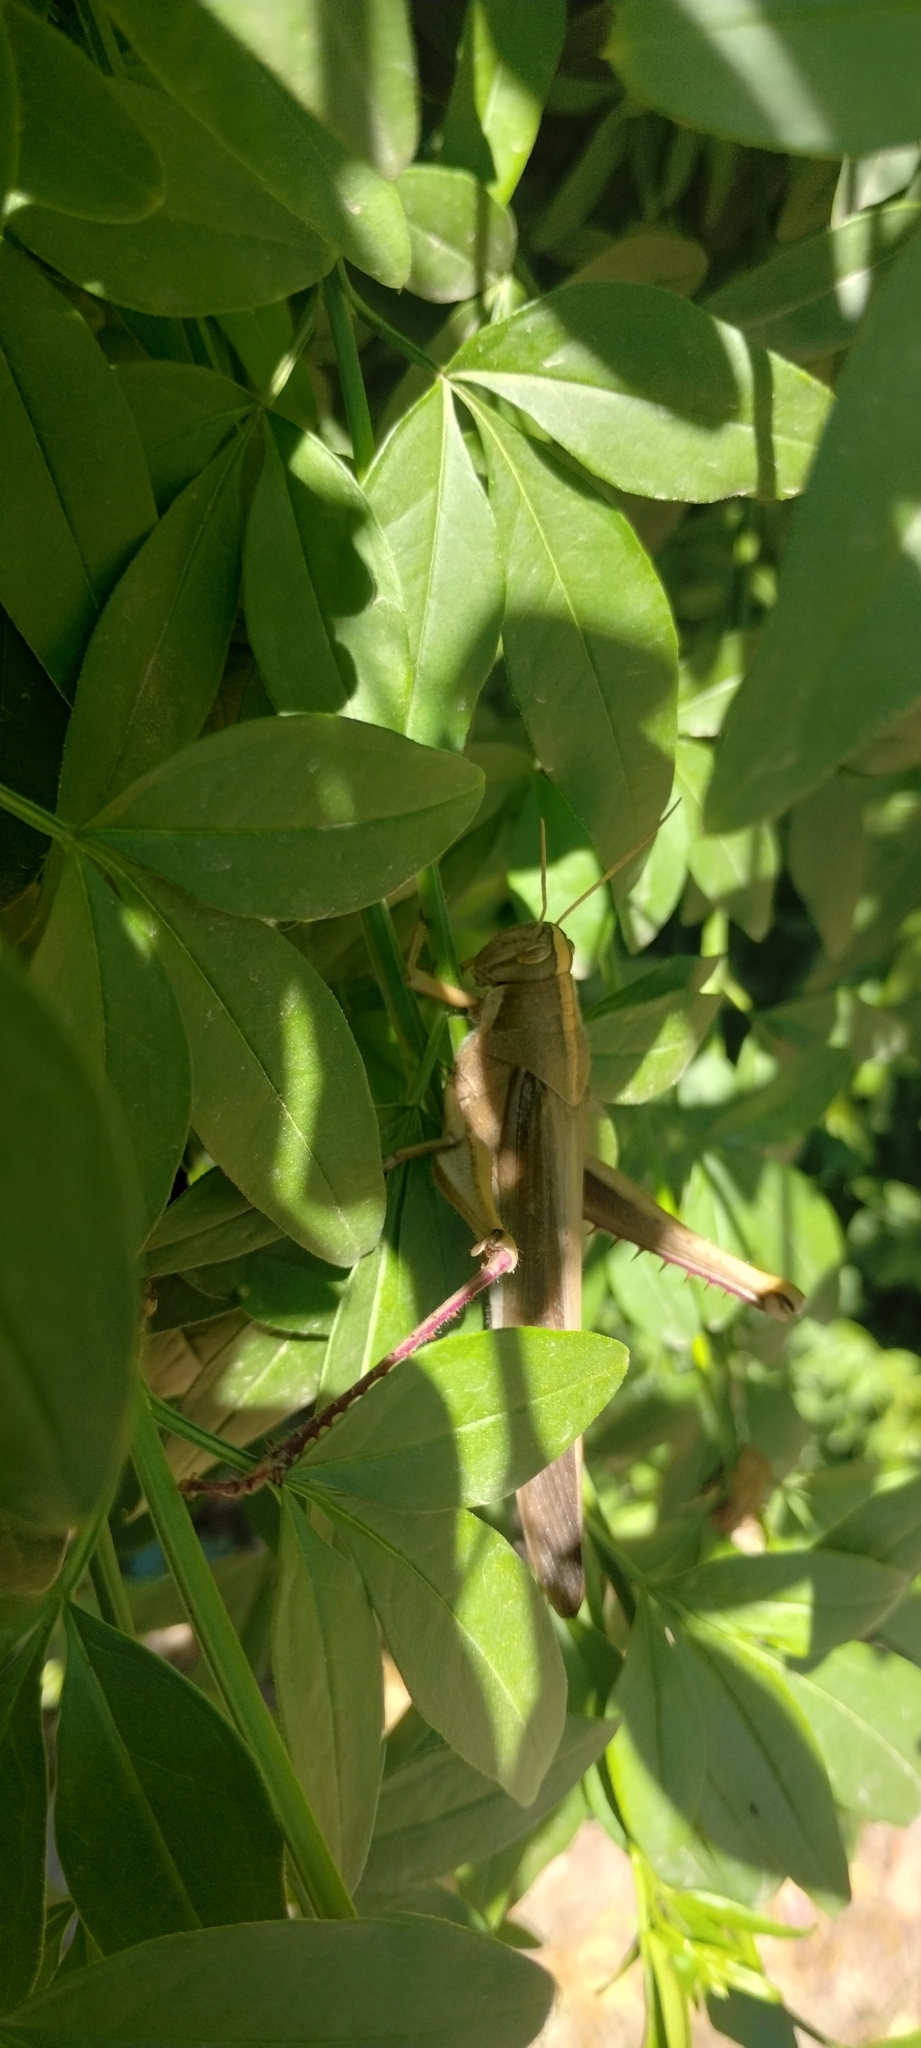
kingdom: Animalia
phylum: Arthropoda
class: Insecta
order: Orthoptera
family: Acrididae
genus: Schistocerca
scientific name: Schistocerca flavofasciata
